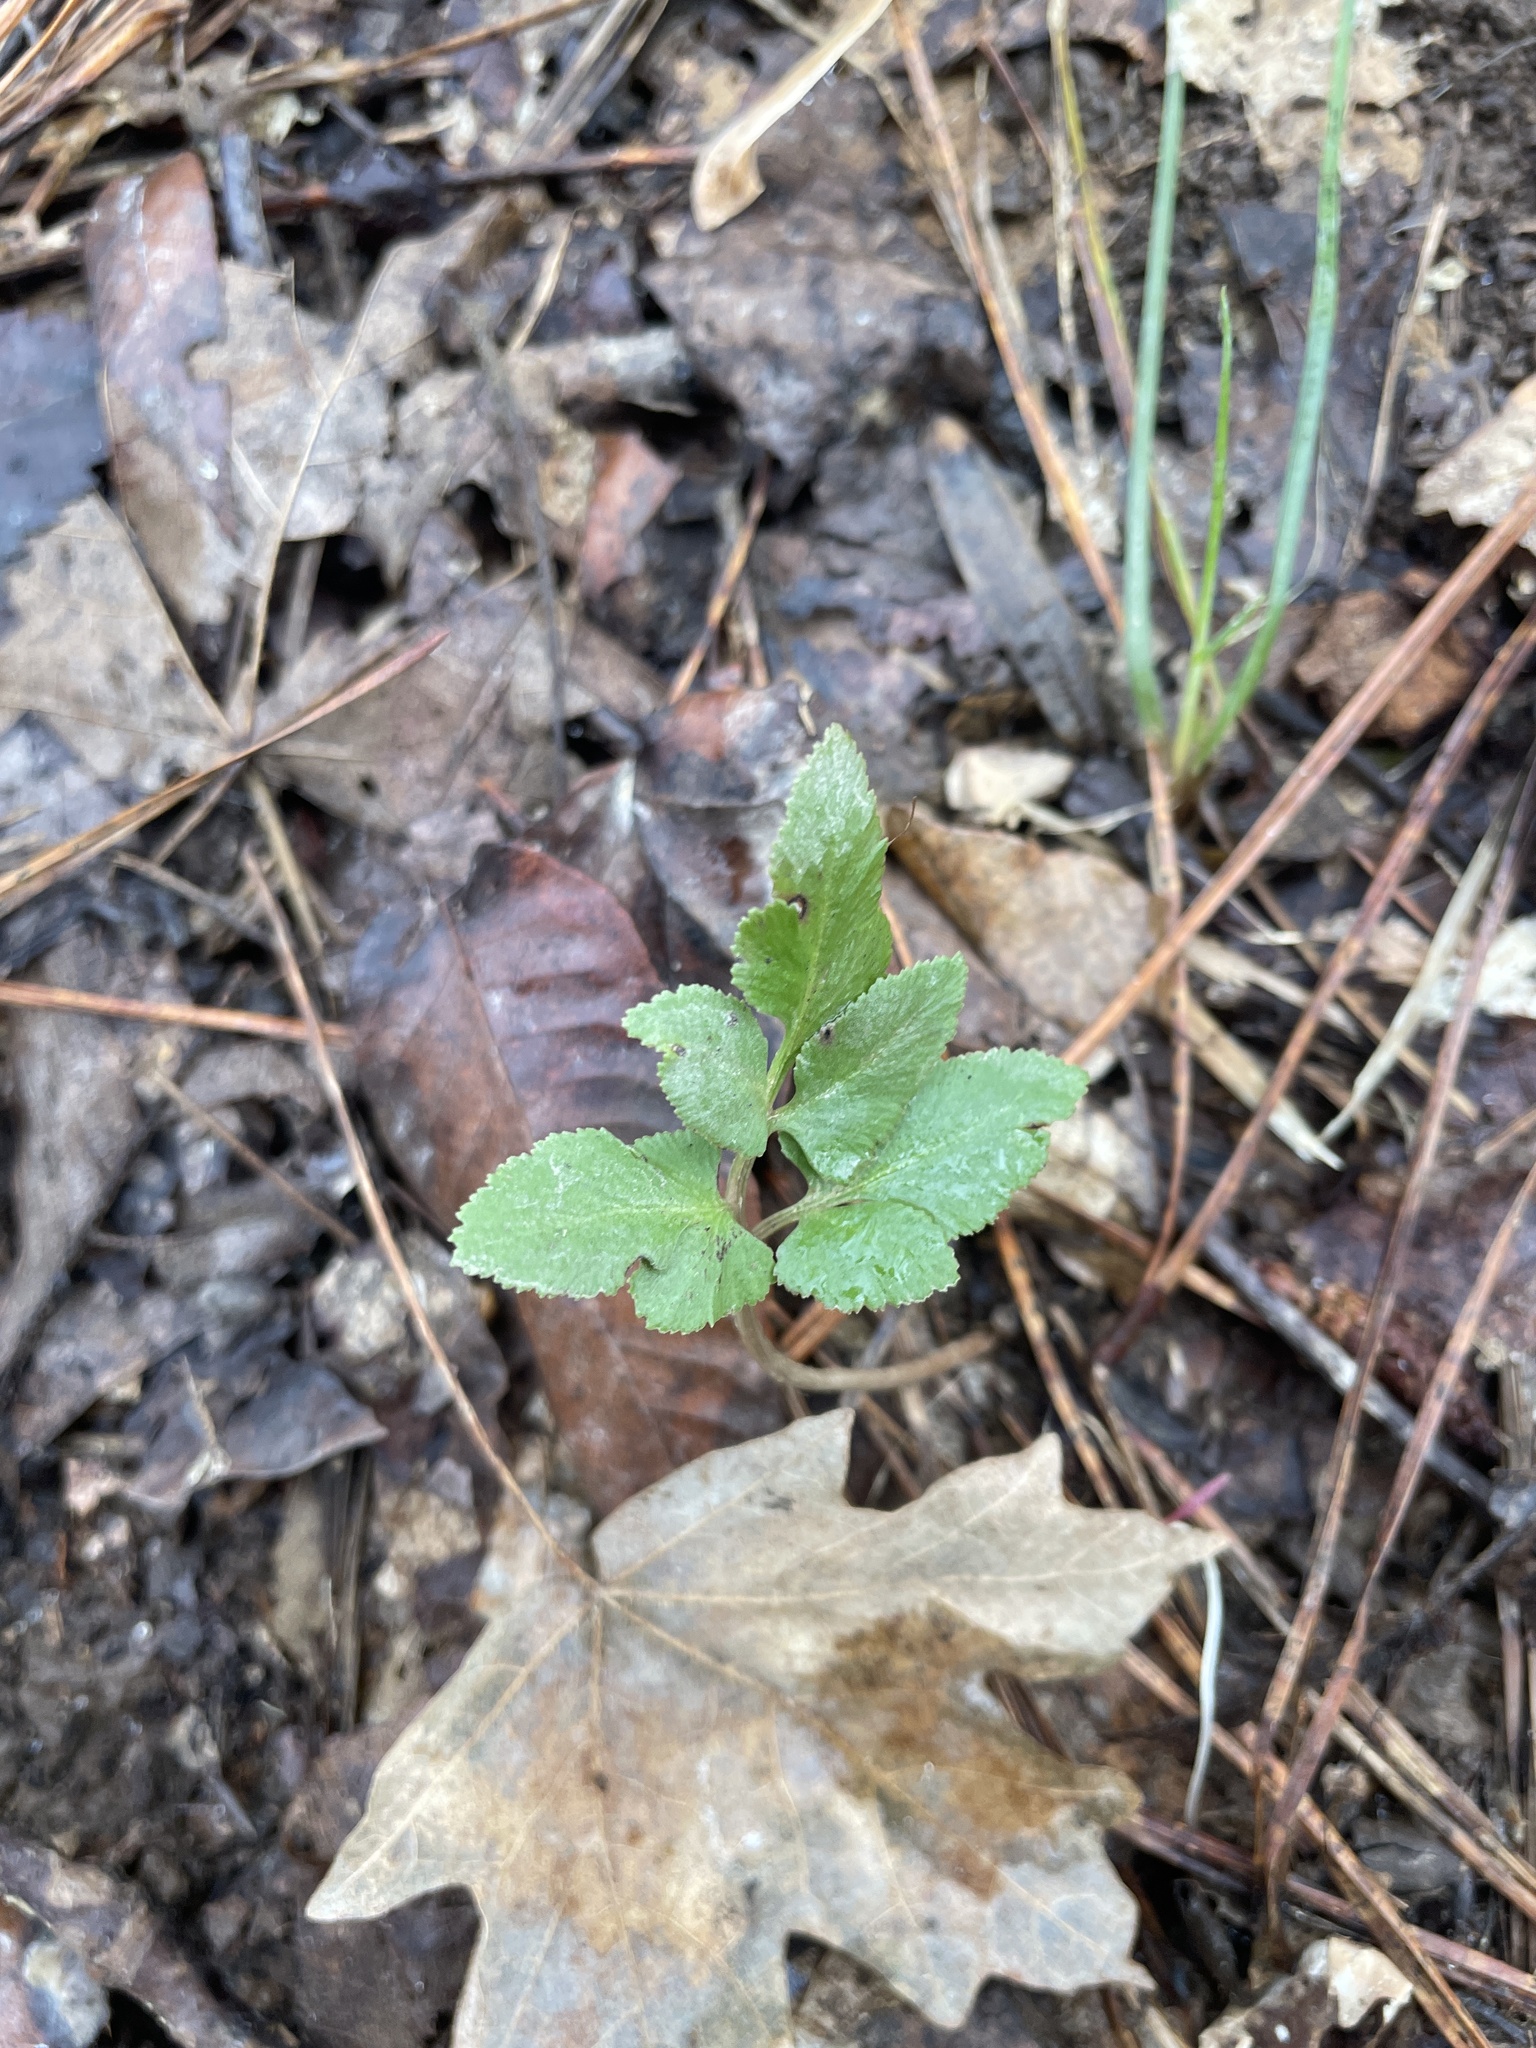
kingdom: Plantae
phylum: Tracheophyta
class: Polypodiopsida
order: Ophioglossales
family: Ophioglossaceae
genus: Sceptridium
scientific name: Sceptridium biternatum
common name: Sparse-lobed grapefern
